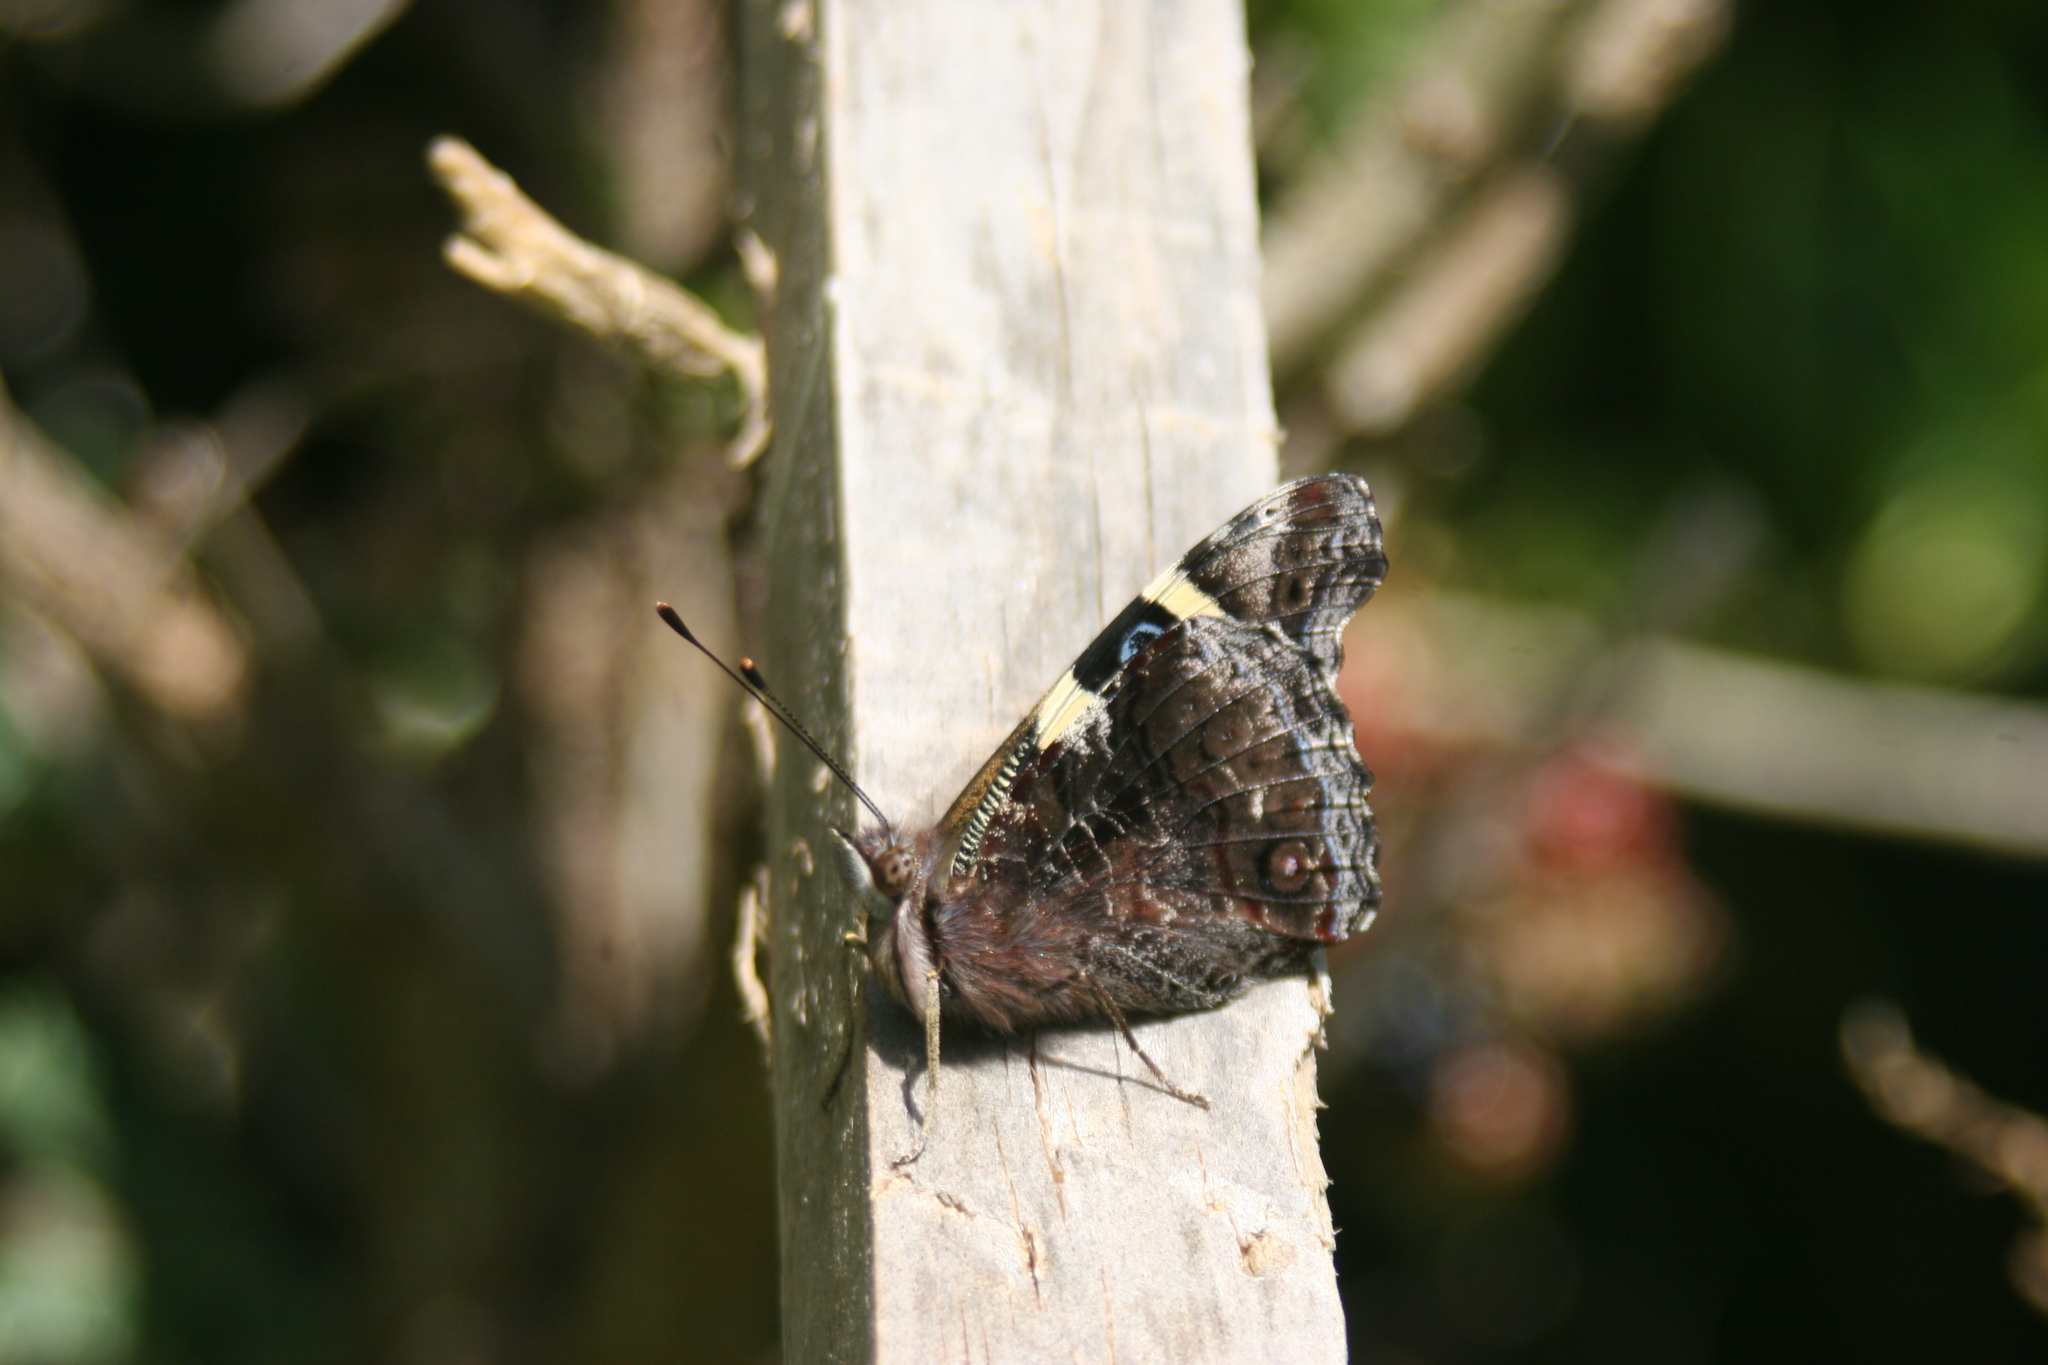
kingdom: Animalia
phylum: Arthropoda
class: Insecta
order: Lepidoptera
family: Nymphalidae
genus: Vanessa
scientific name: Vanessa itea
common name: Yellow admiral
